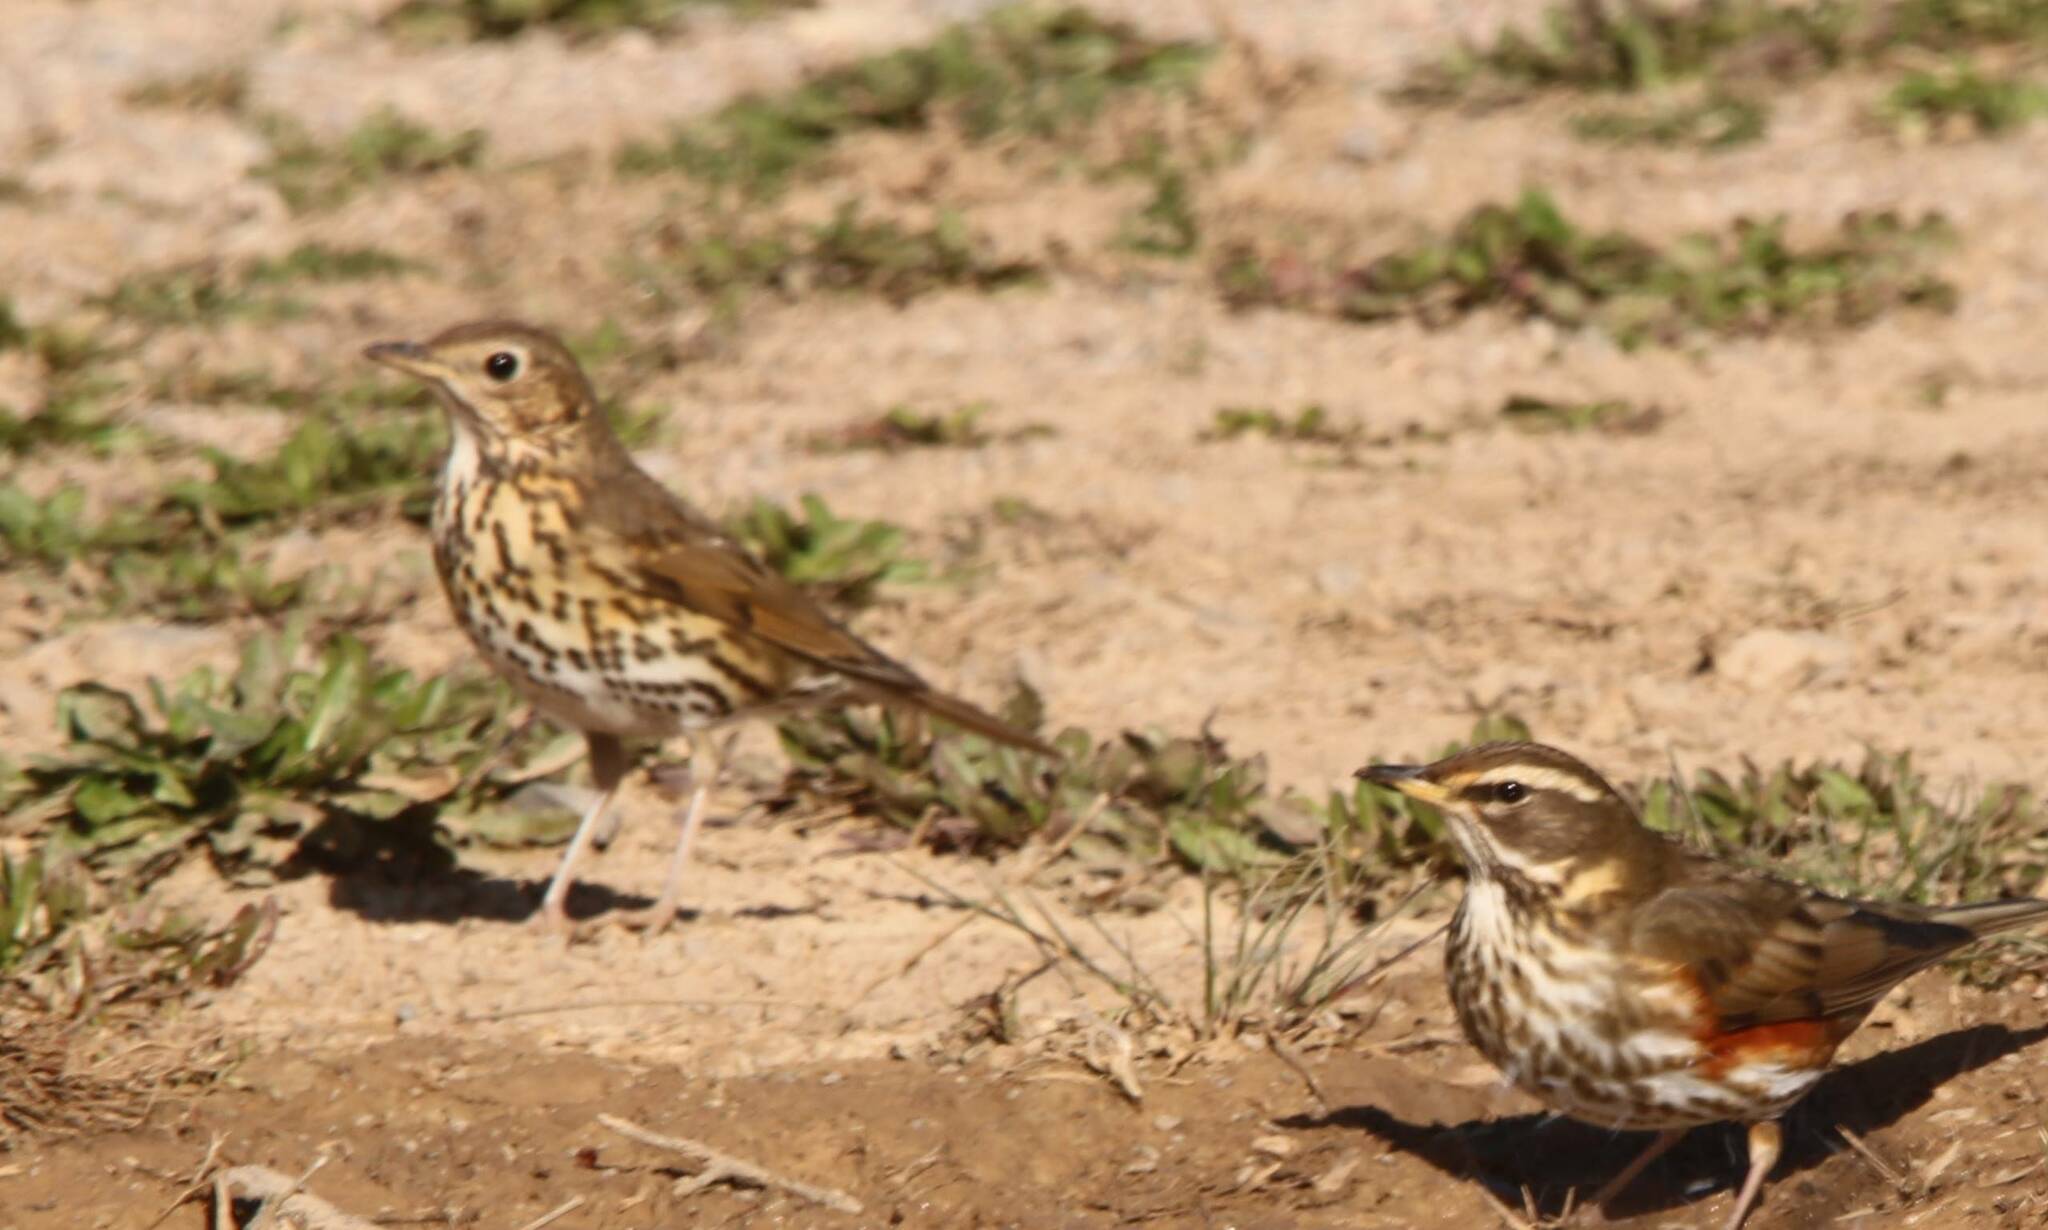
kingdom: Animalia
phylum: Chordata
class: Aves
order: Passeriformes
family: Turdidae
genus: Turdus
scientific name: Turdus philomelos
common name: Song thrush
